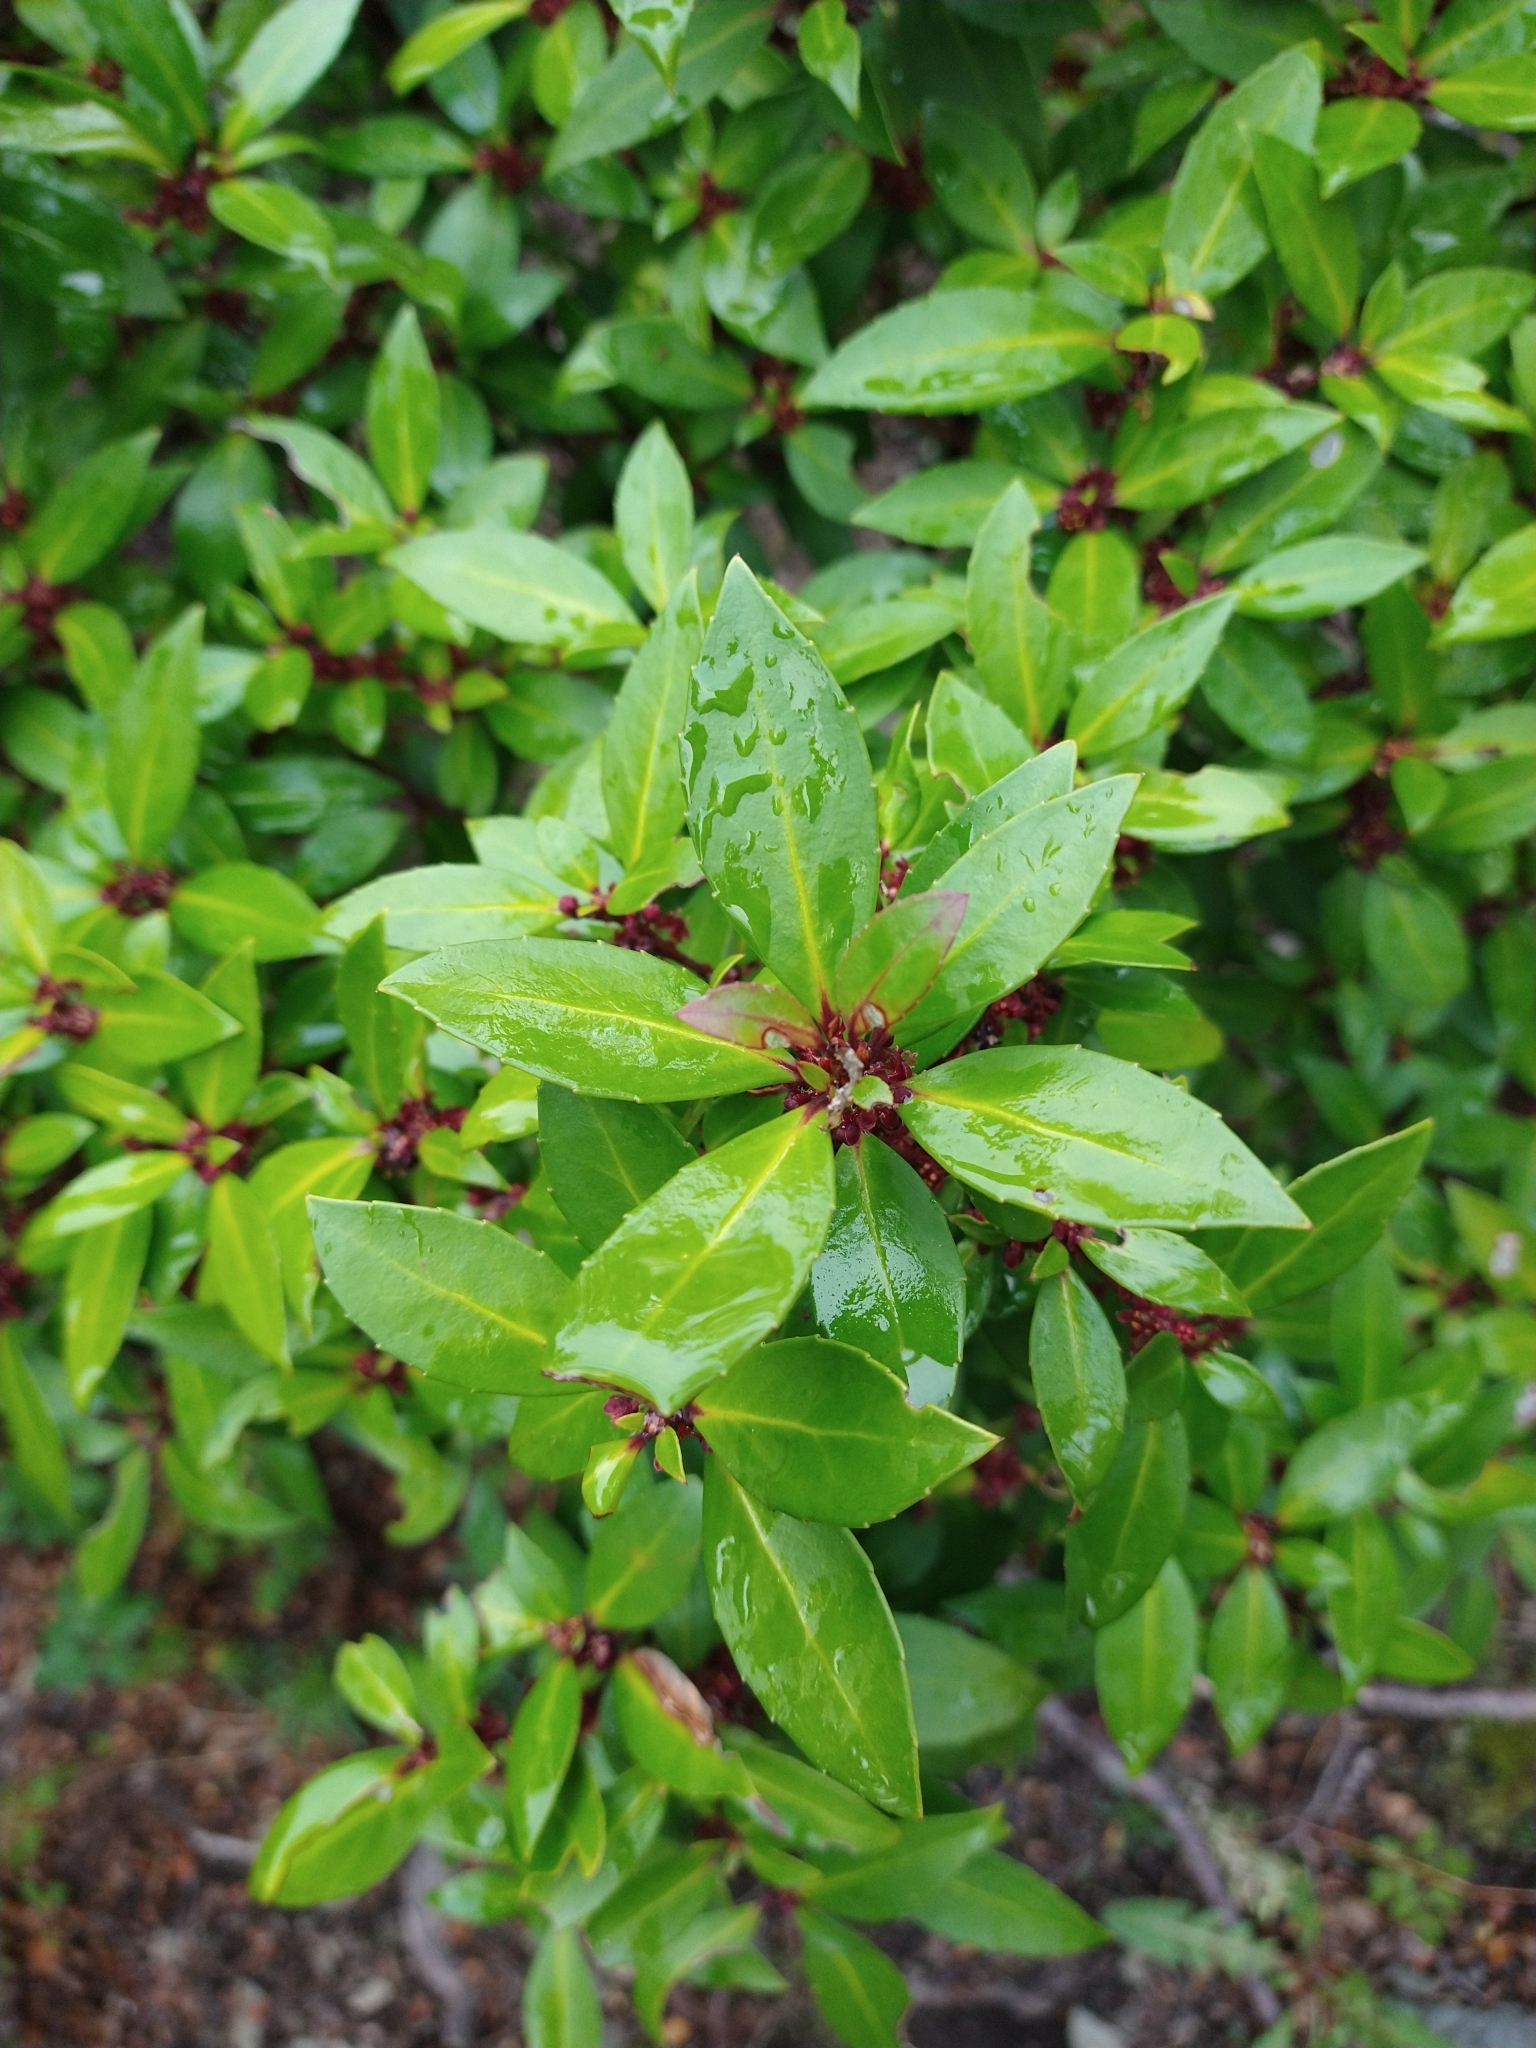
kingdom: Plantae
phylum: Tracheophyta
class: Magnoliopsida
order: Canellales
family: Winteraceae
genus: Drimys
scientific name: Drimys winteri
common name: Winter's-bark
